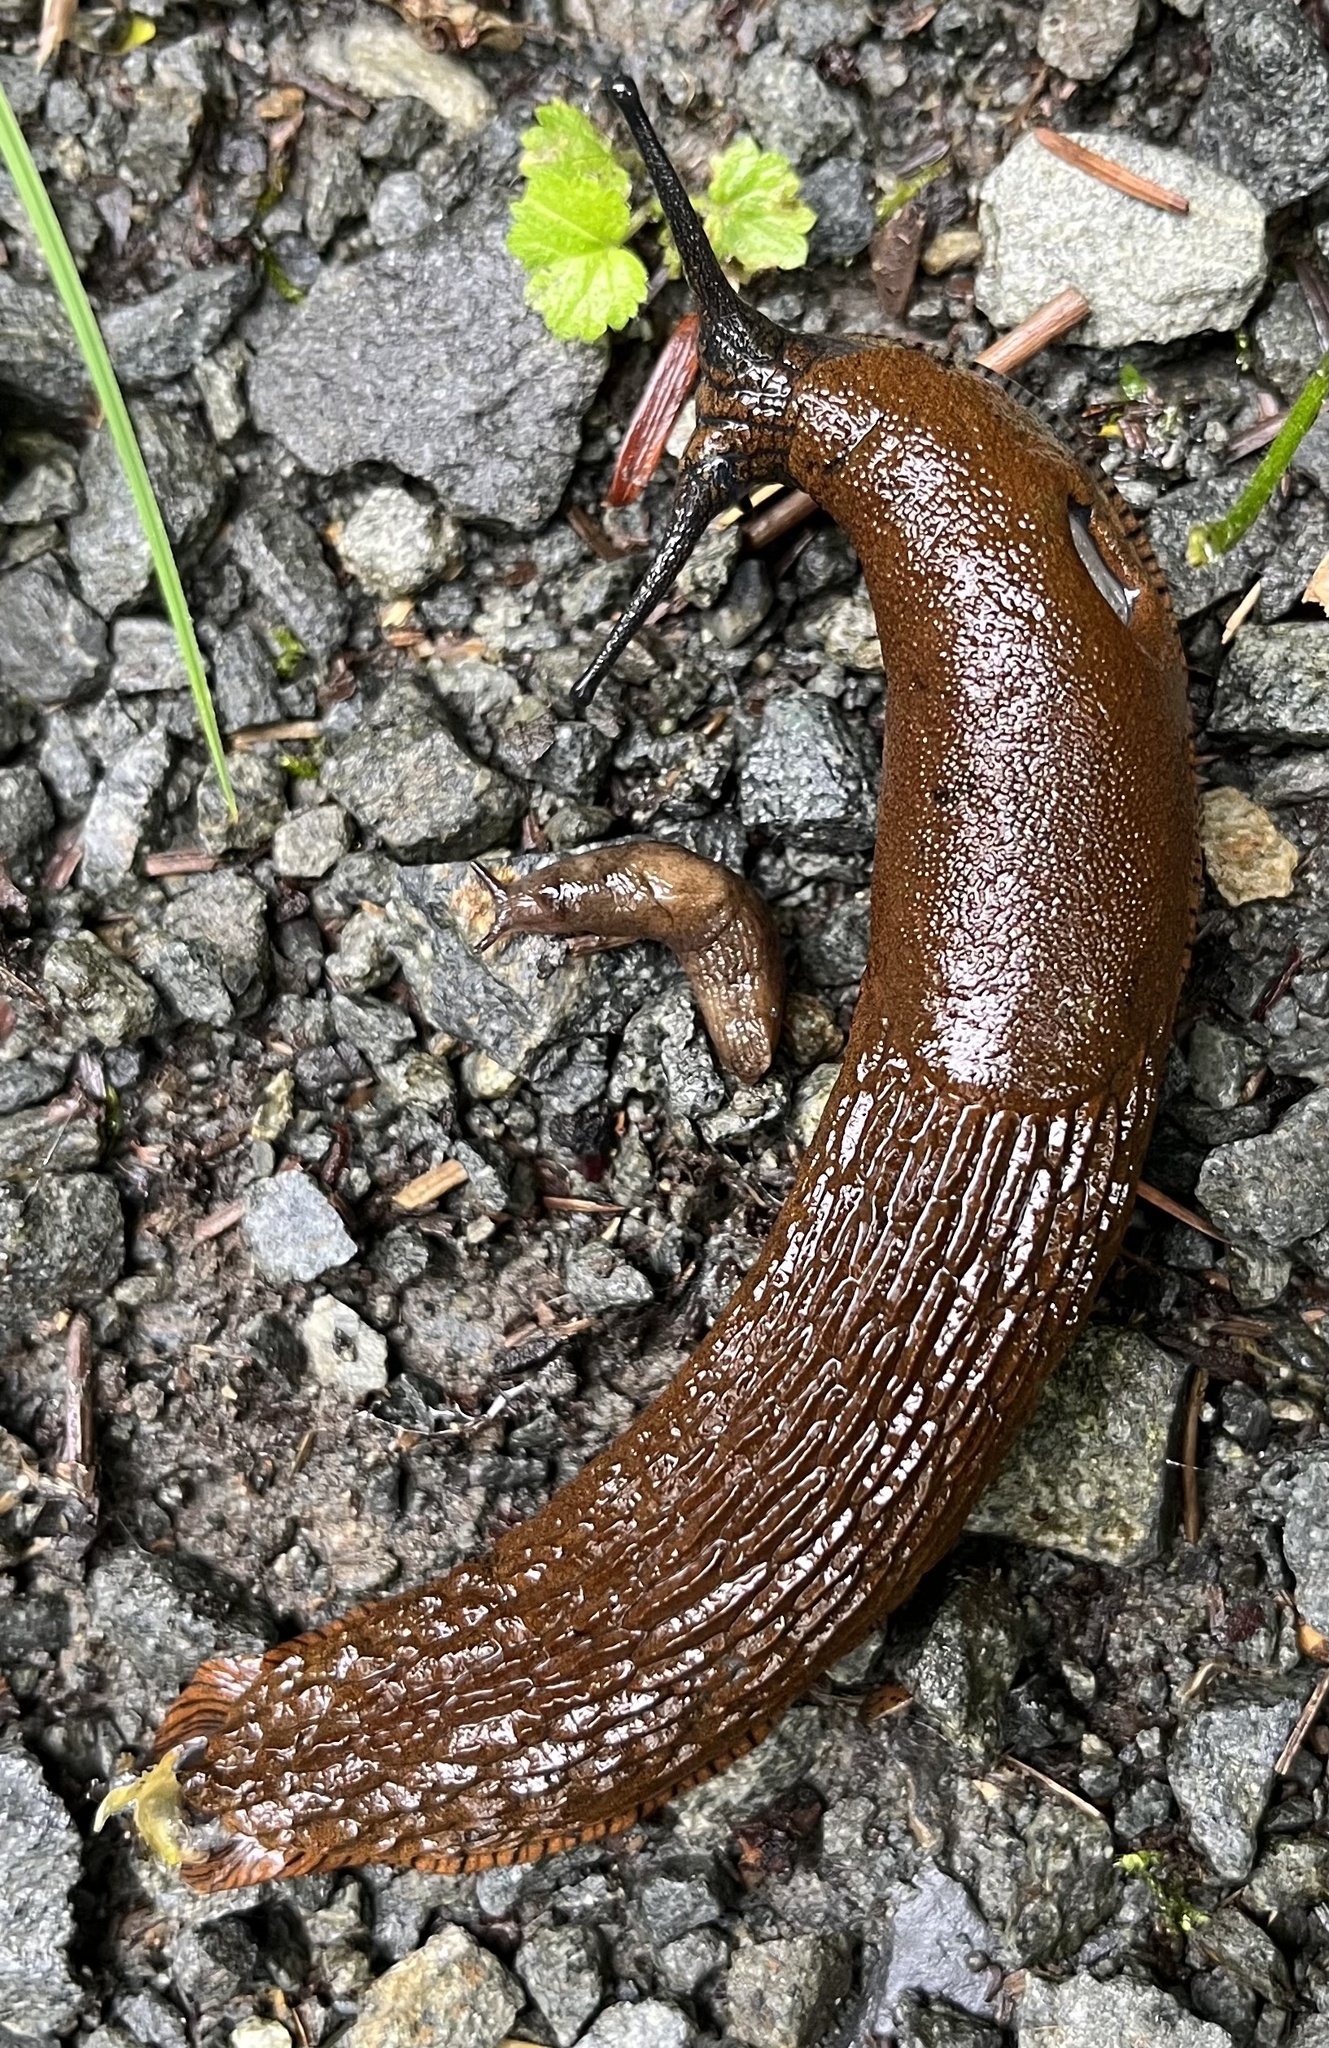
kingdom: Animalia
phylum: Mollusca
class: Gastropoda
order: Stylommatophora
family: Arionidae
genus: Arion
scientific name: Arion
